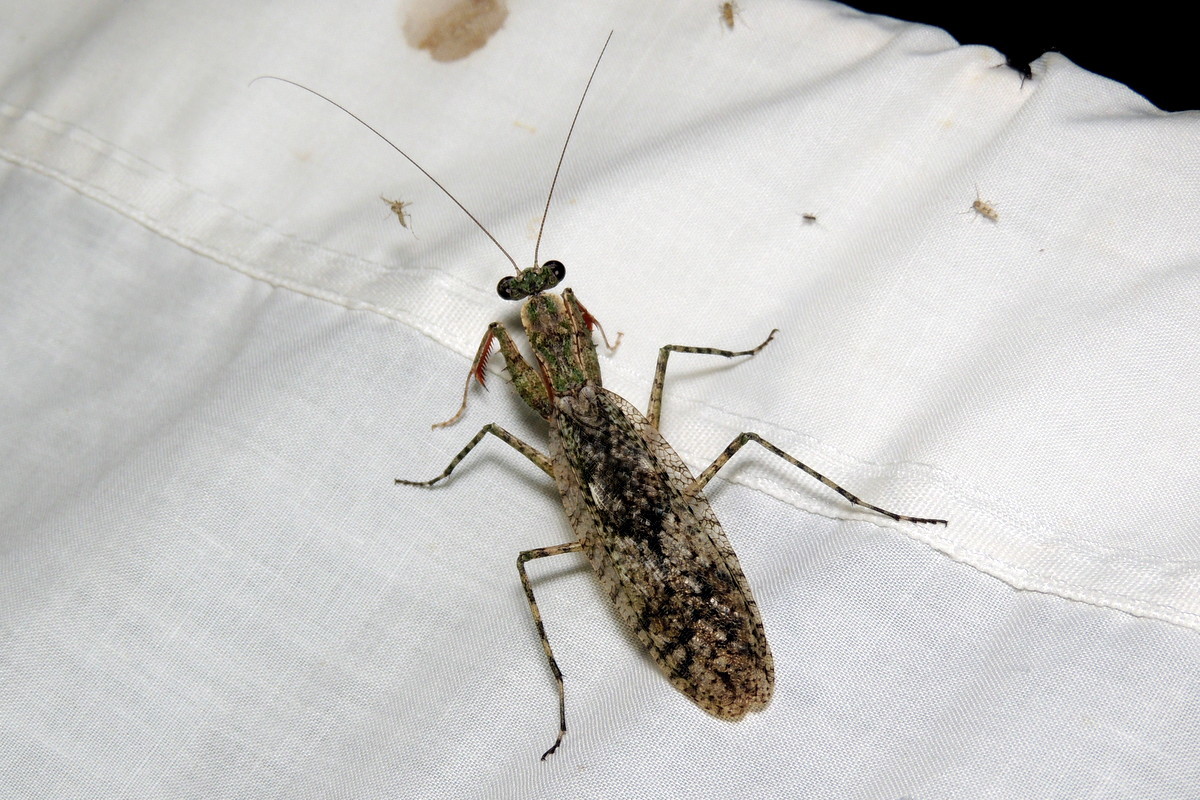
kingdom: Animalia
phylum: Arthropoda
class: Insecta
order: Mantodea
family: Epaphroditidae
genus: Gonatista
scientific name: Gonatista grisea
